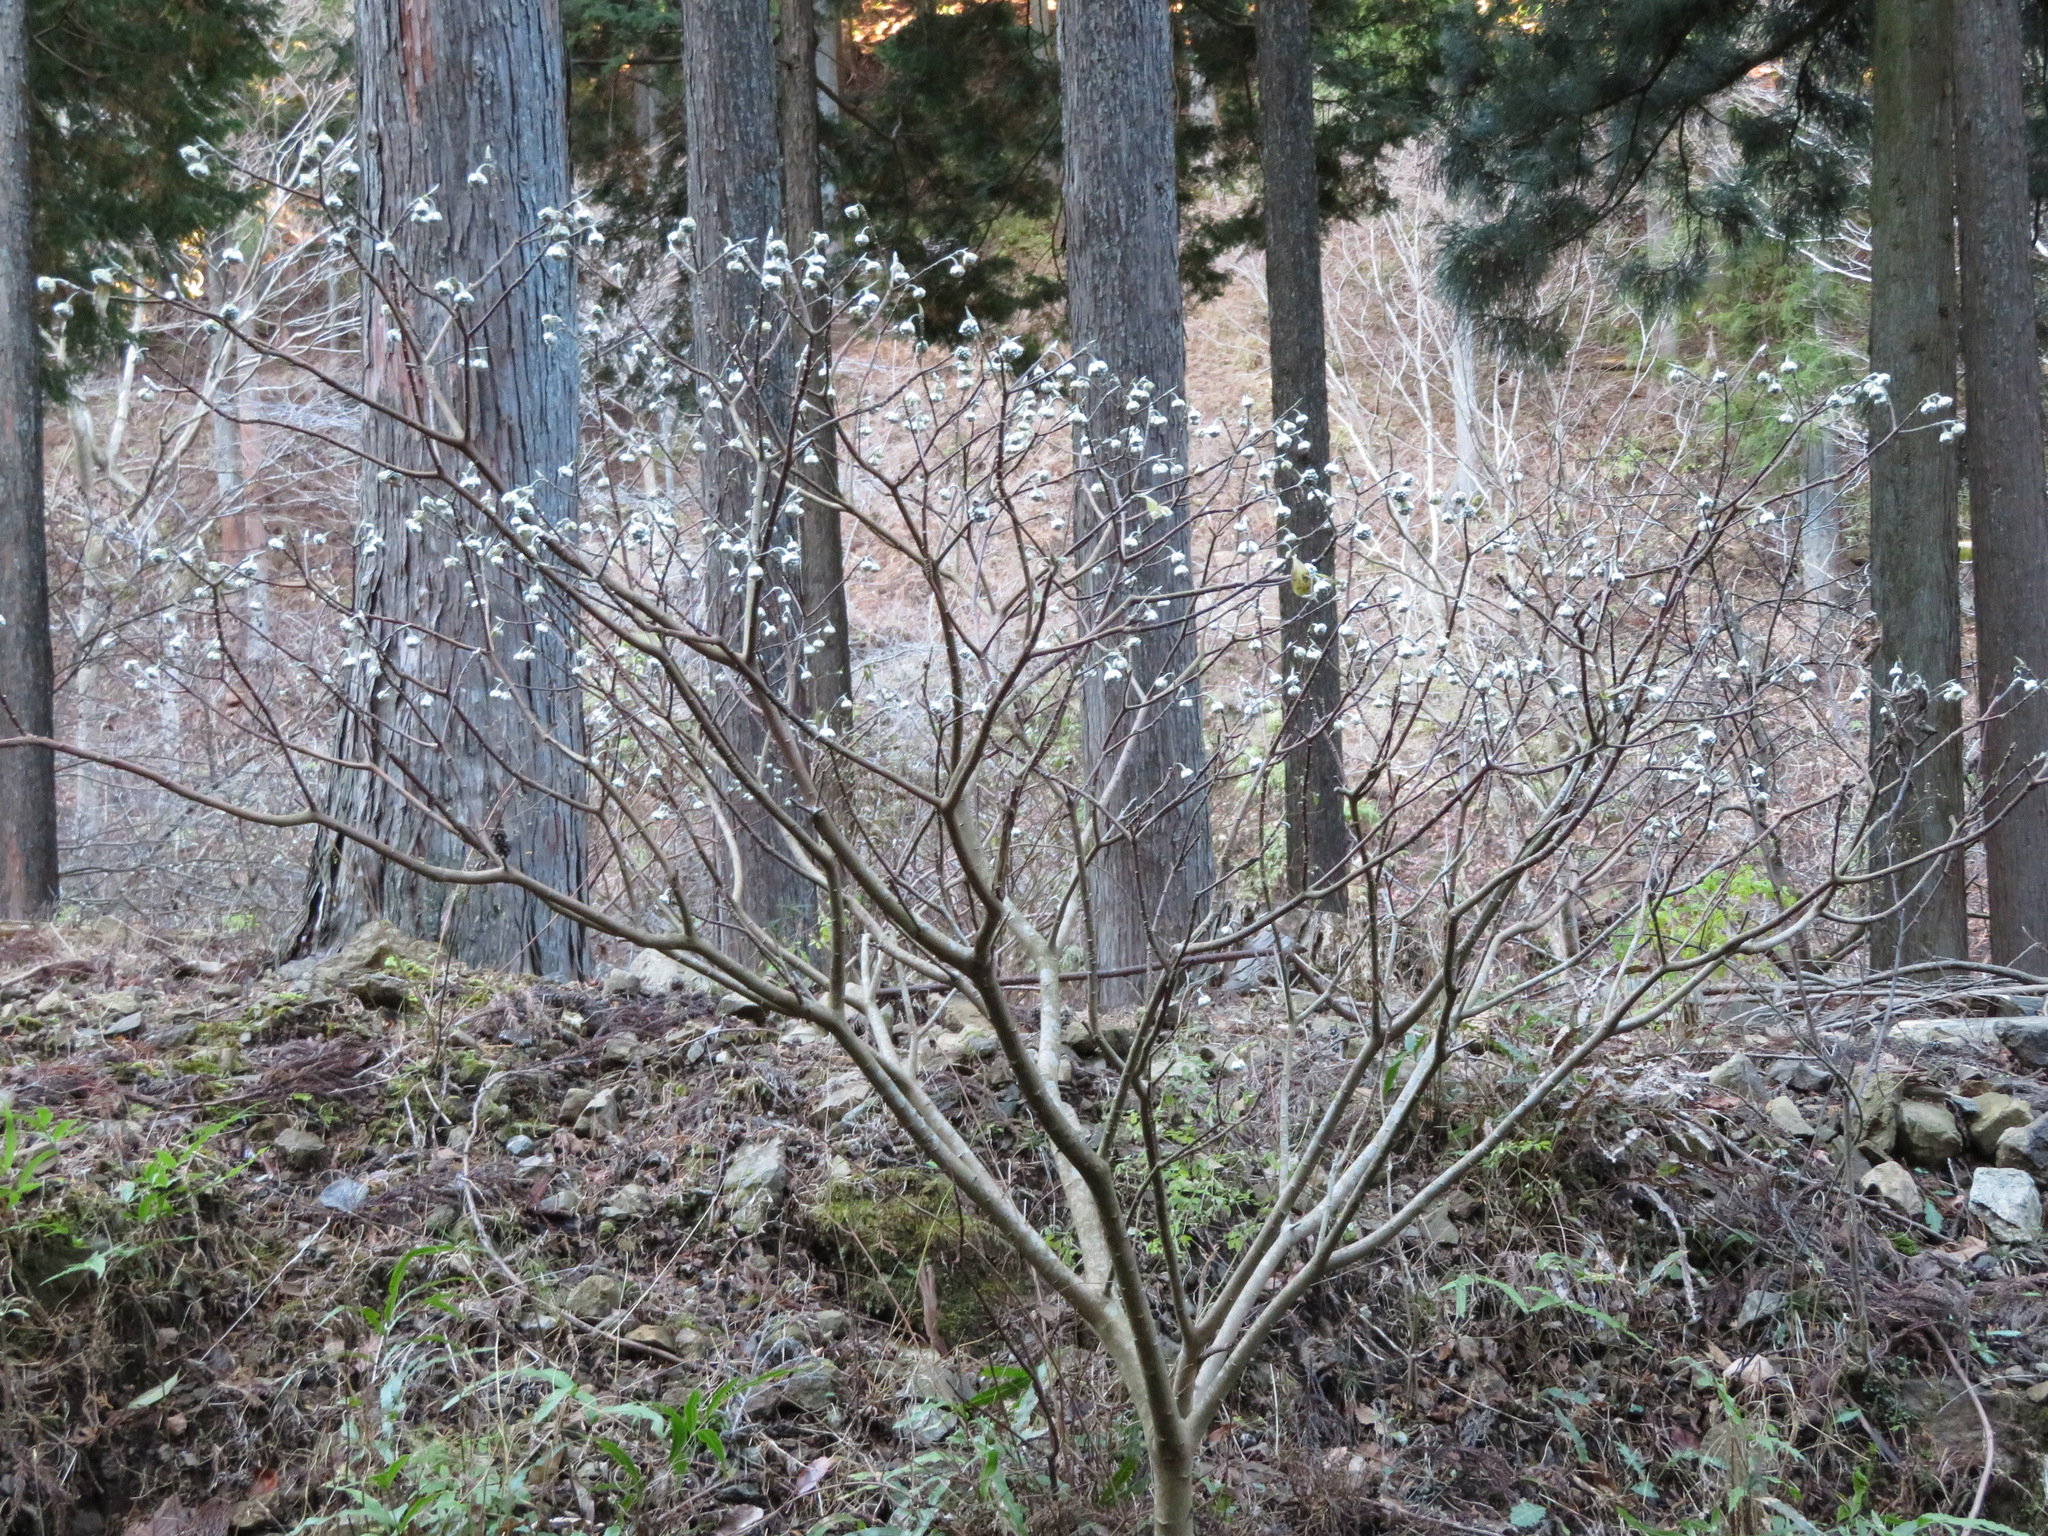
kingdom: Plantae
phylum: Tracheophyta
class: Magnoliopsida
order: Malvales
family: Thymelaeaceae
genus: Edgeworthia
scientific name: Edgeworthia chrysantha
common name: Oriental paperbush
